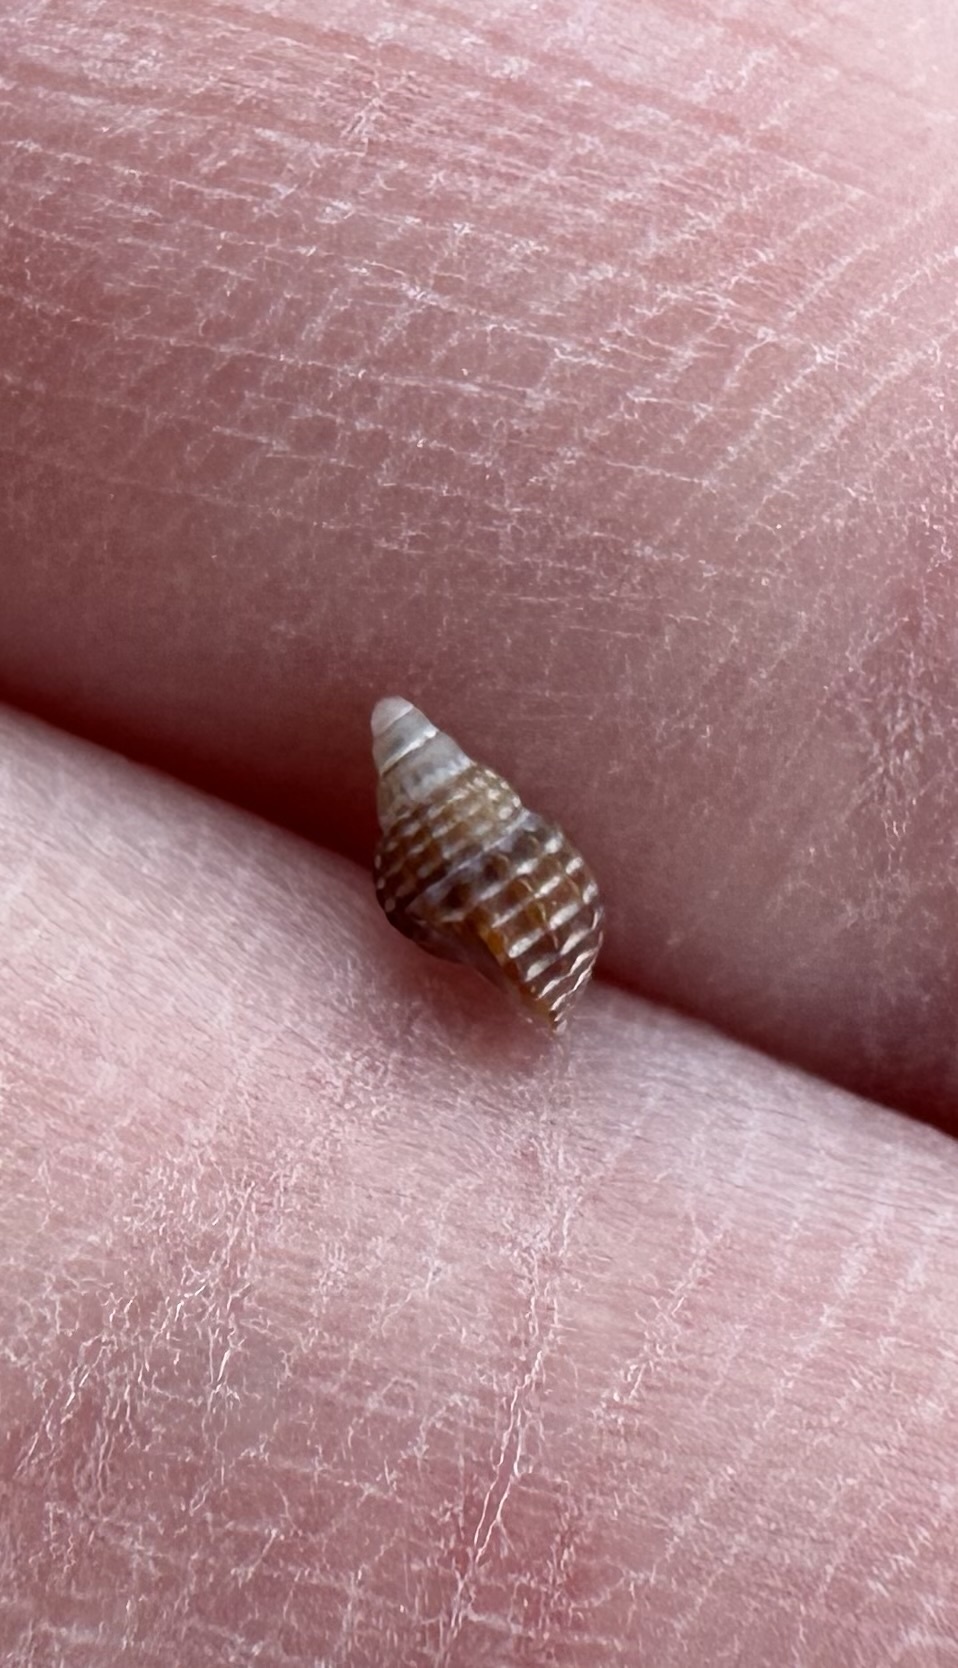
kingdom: Animalia
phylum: Mollusca
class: Gastropoda
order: Neogastropoda
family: Nassariidae
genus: Ilyanassa
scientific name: Ilyanassa trivittata
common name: Three-line mudsnail
